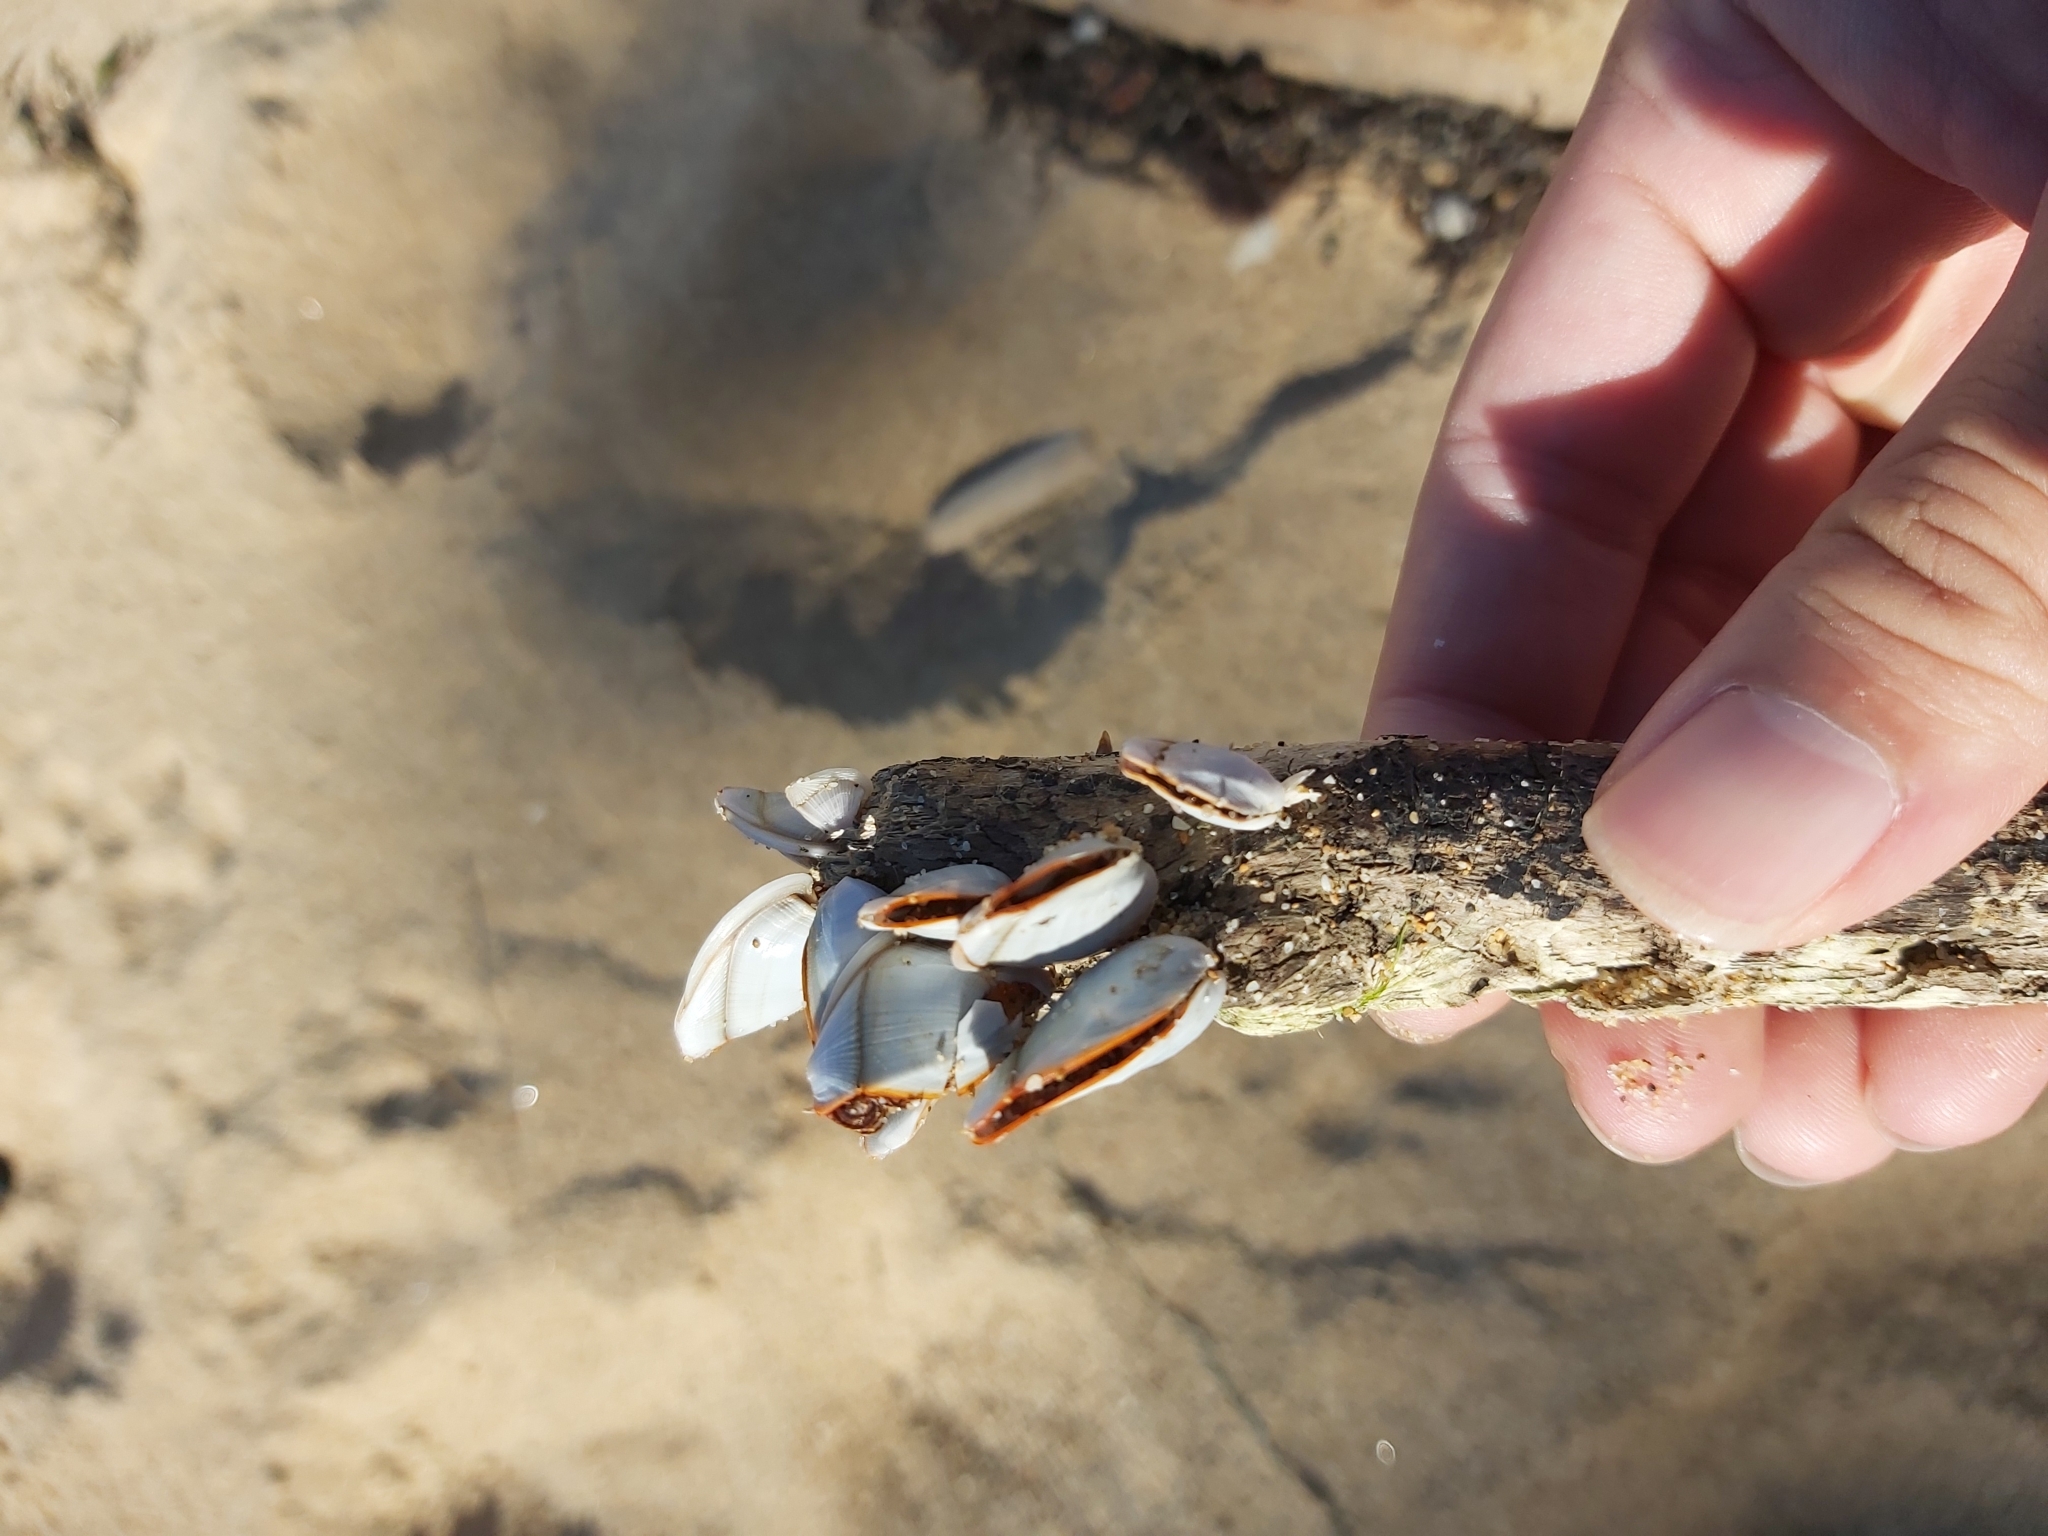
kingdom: Animalia
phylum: Arthropoda
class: Maxillopoda
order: Pedunculata
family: Lepadidae
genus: Lepas
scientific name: Lepas anserifera
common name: Goose barnacle
